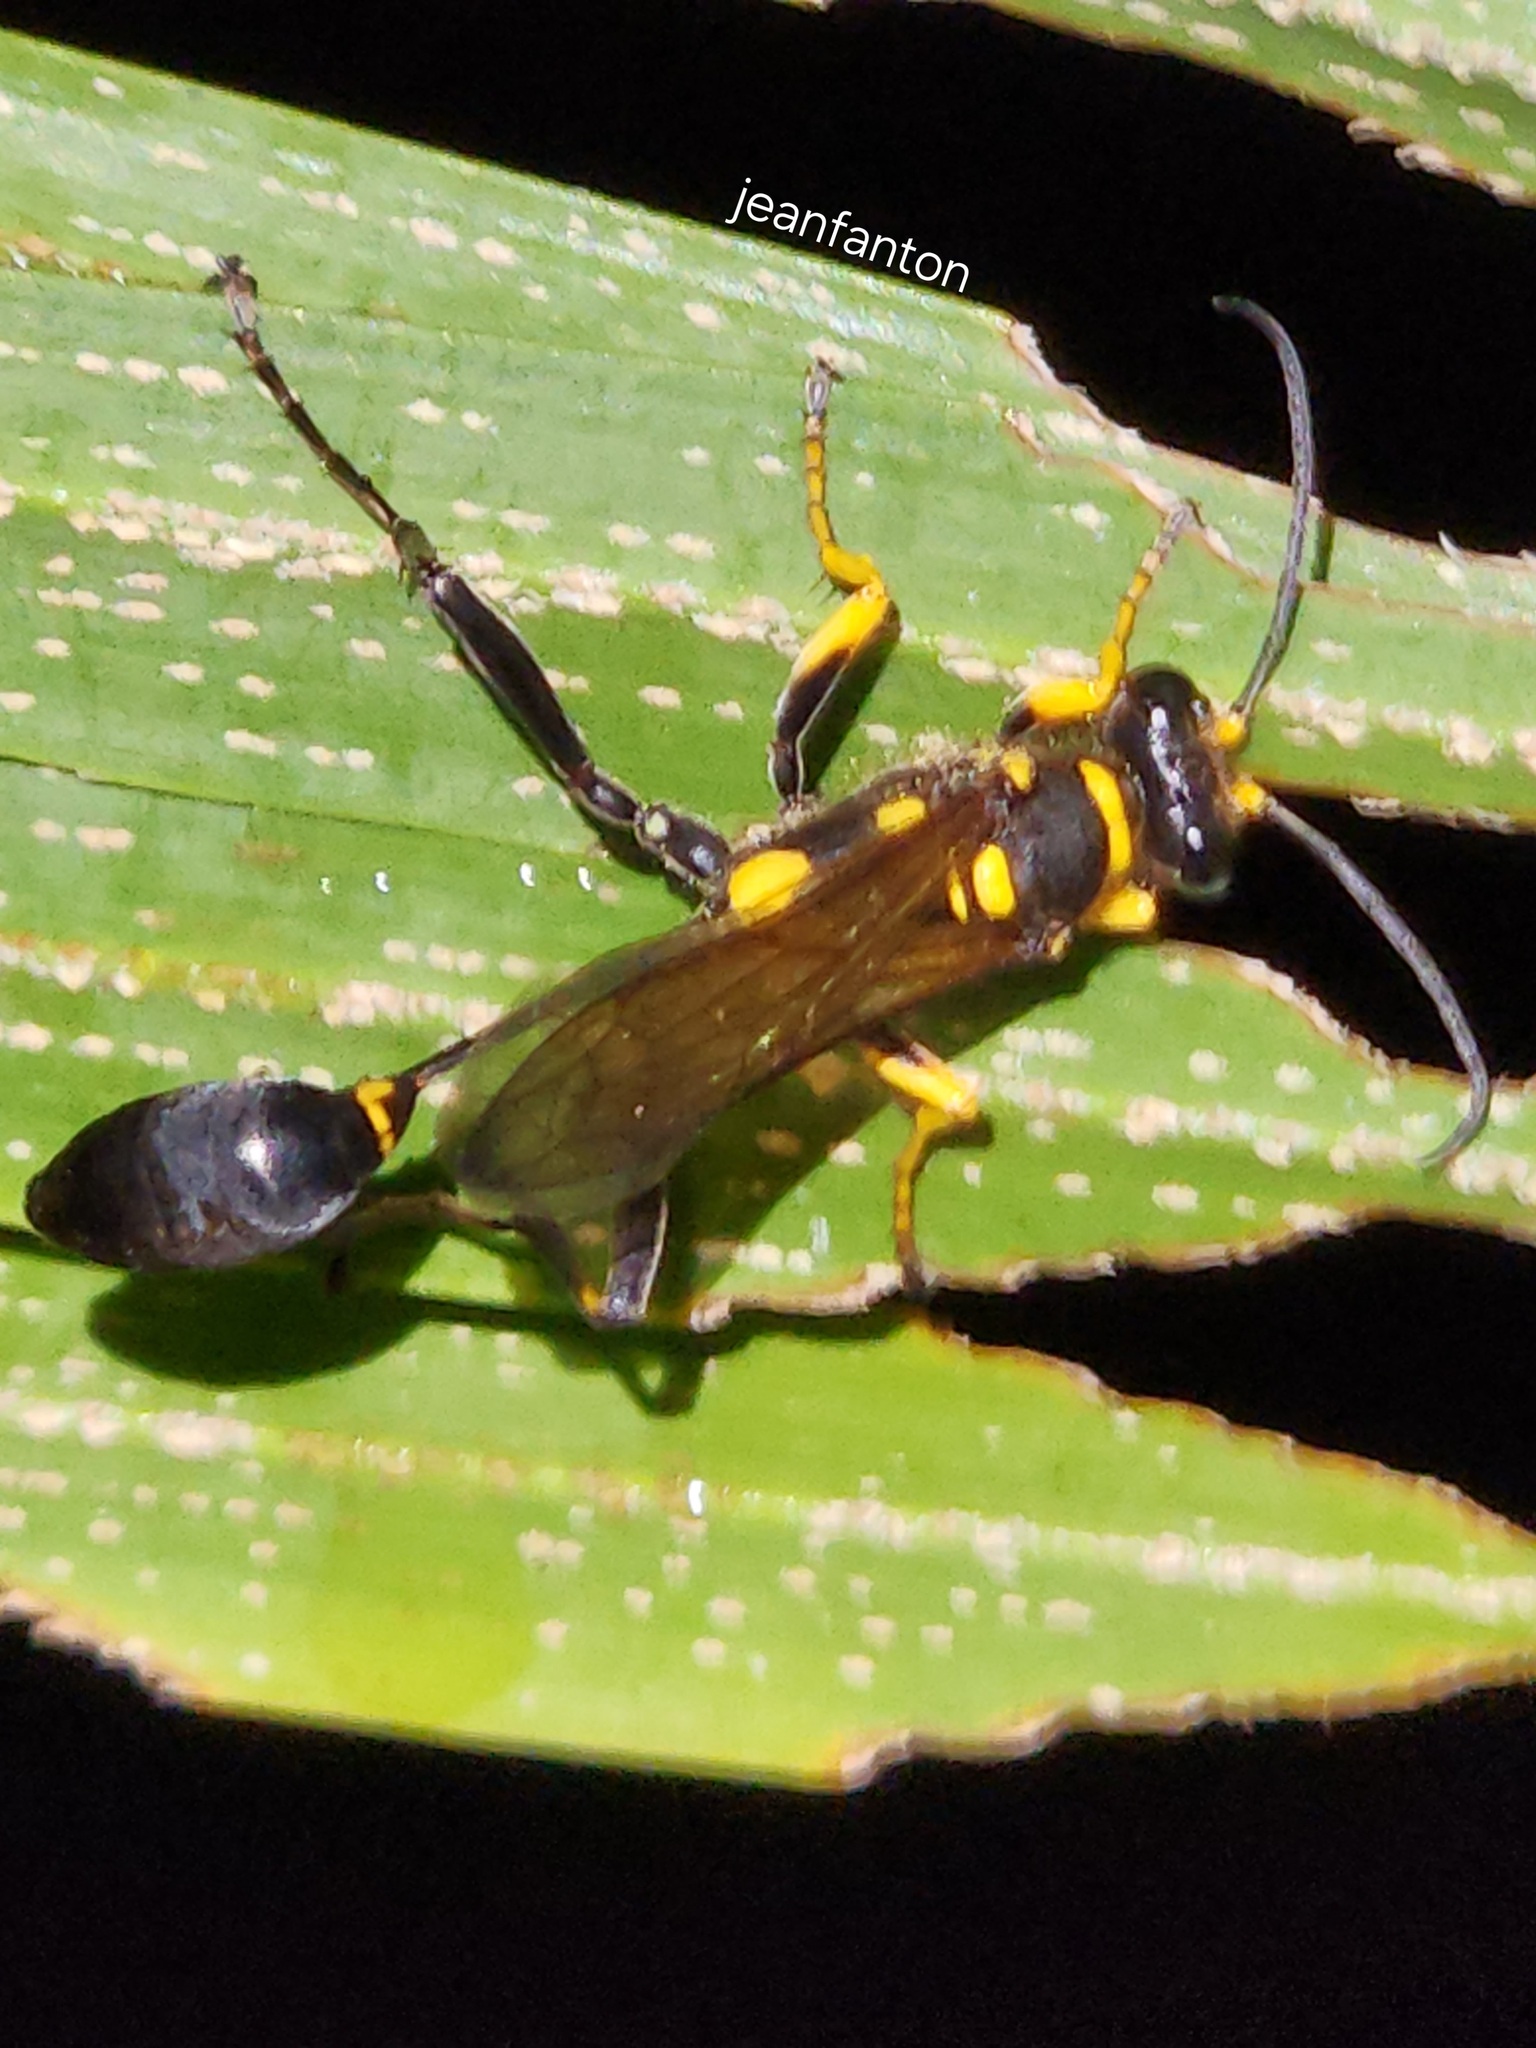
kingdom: Animalia
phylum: Arthropoda
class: Insecta
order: Hymenoptera
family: Sphecidae
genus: Sceliphron
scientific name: Sceliphron asiaticum
